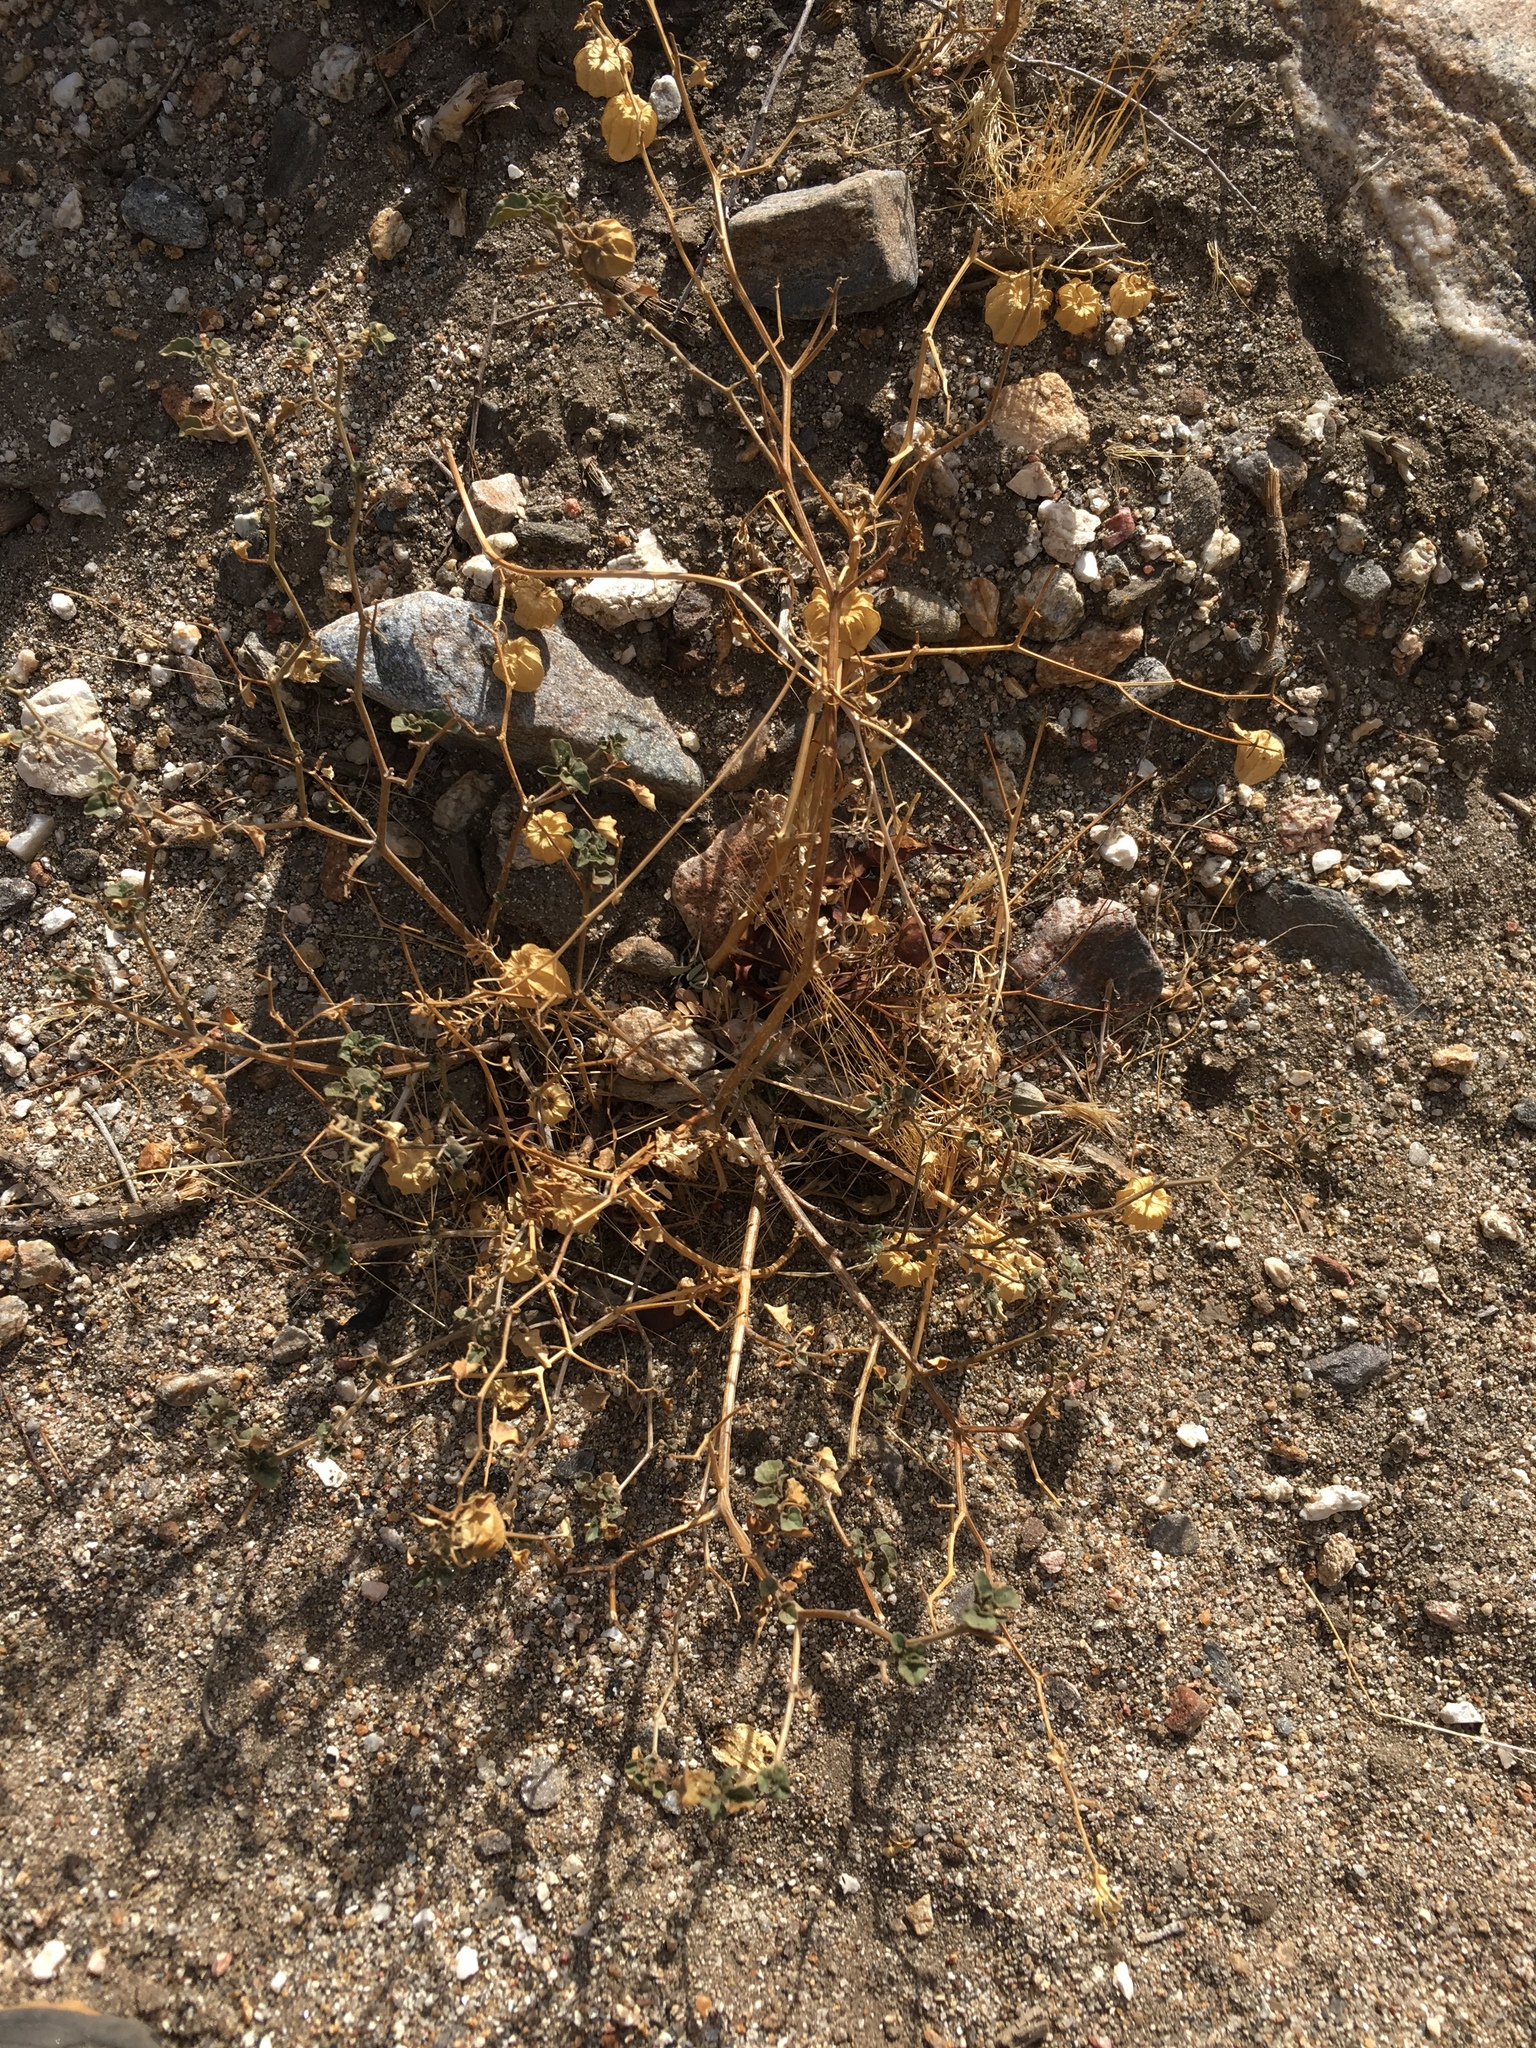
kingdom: Plantae
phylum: Tracheophyta
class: Magnoliopsida
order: Solanales
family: Solanaceae
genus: Physalis
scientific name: Physalis crassifolia
